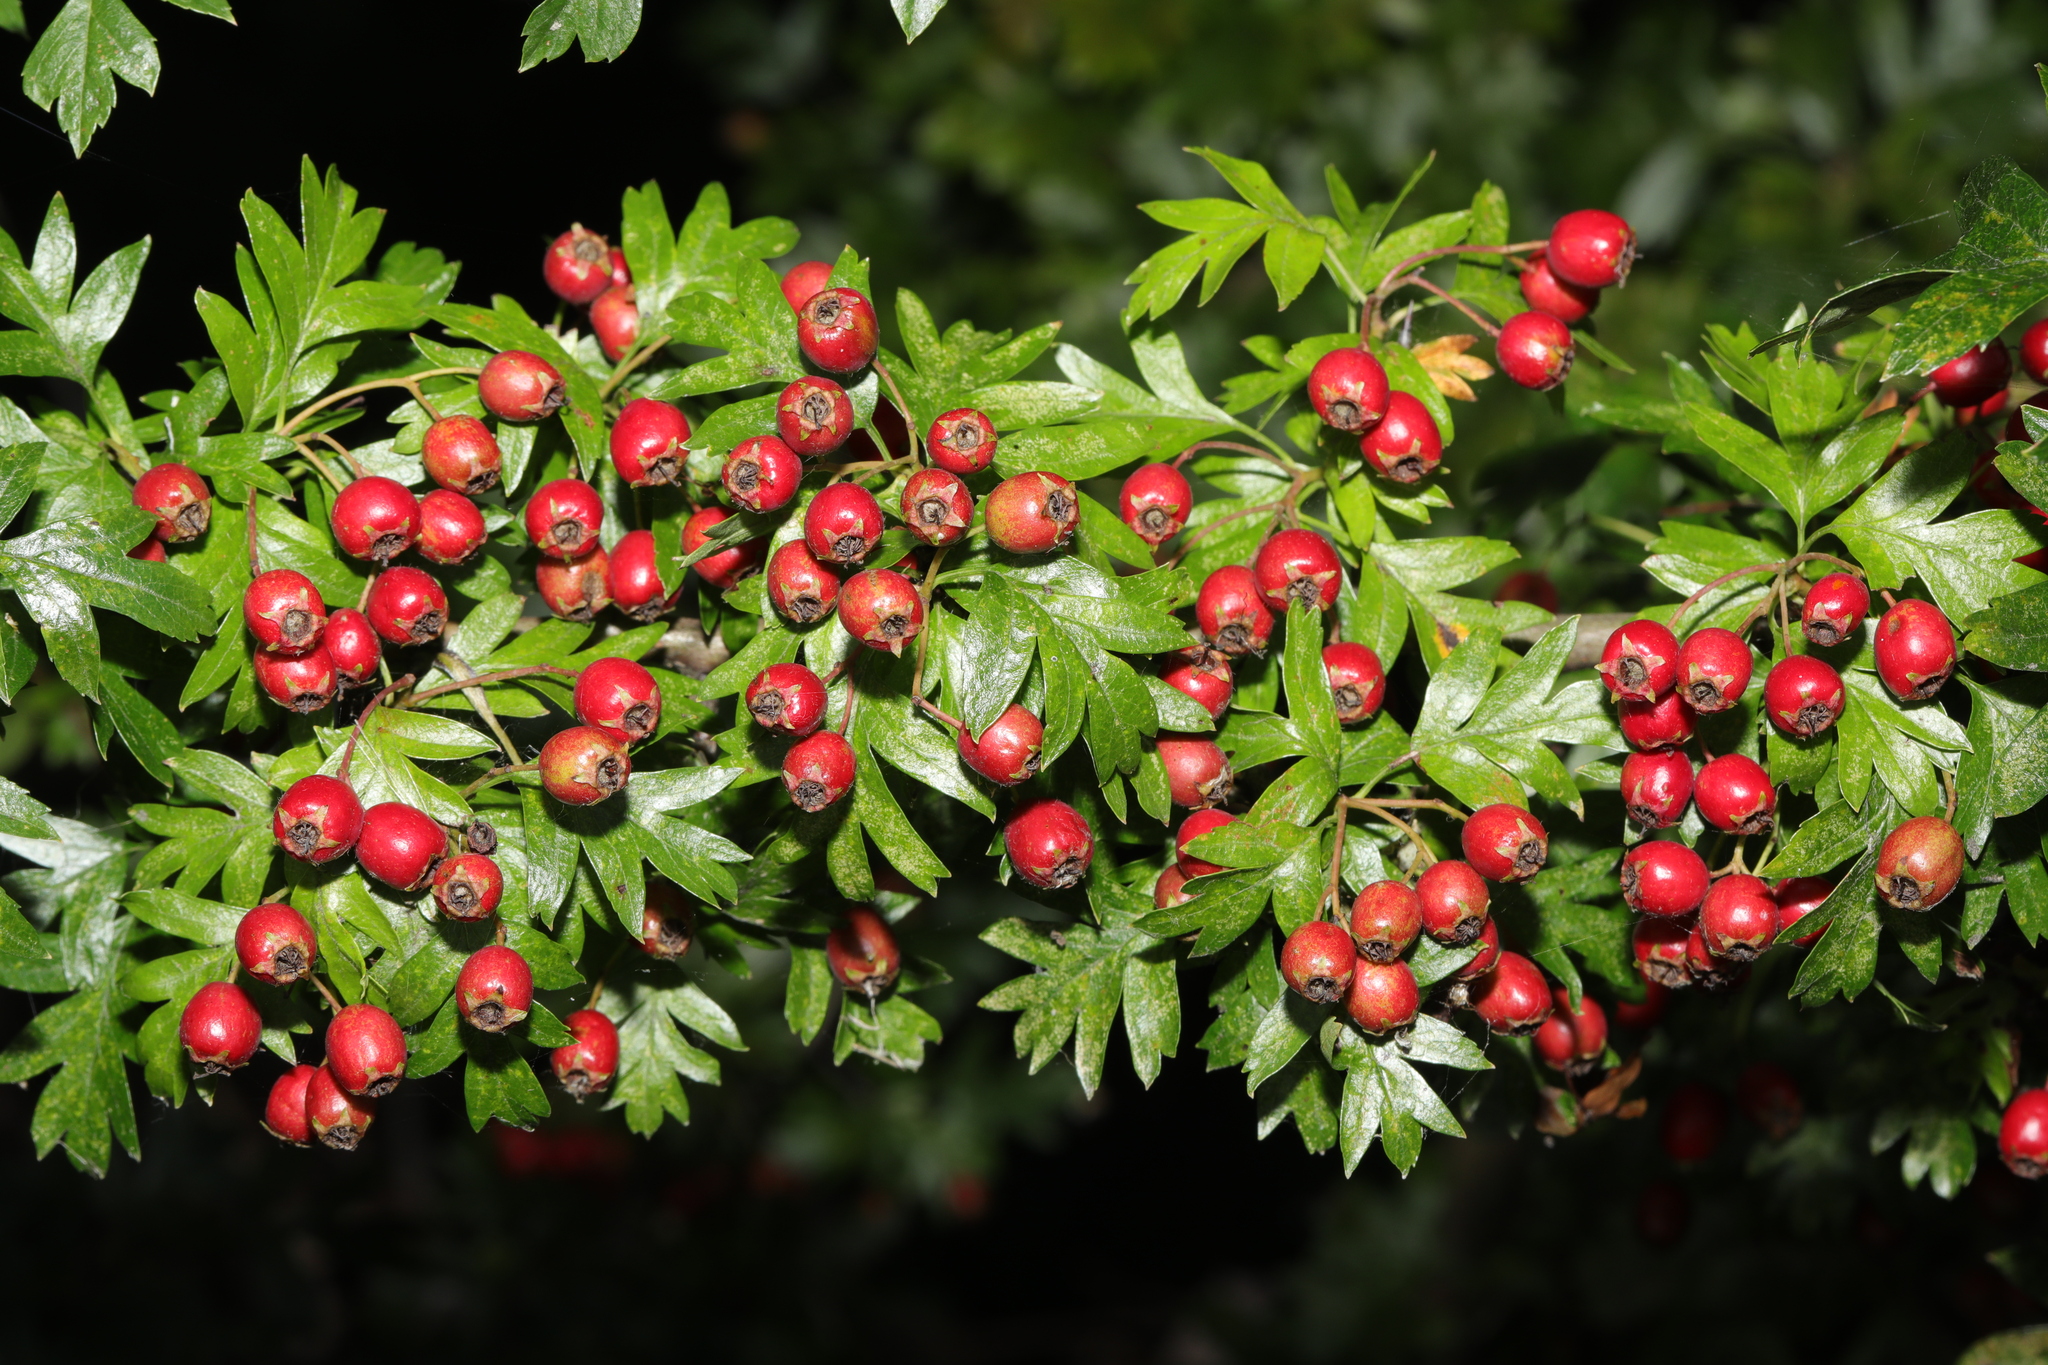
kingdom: Plantae
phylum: Tracheophyta
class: Magnoliopsida
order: Rosales
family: Rosaceae
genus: Crataegus
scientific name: Crataegus monogyna
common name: Hawthorn
